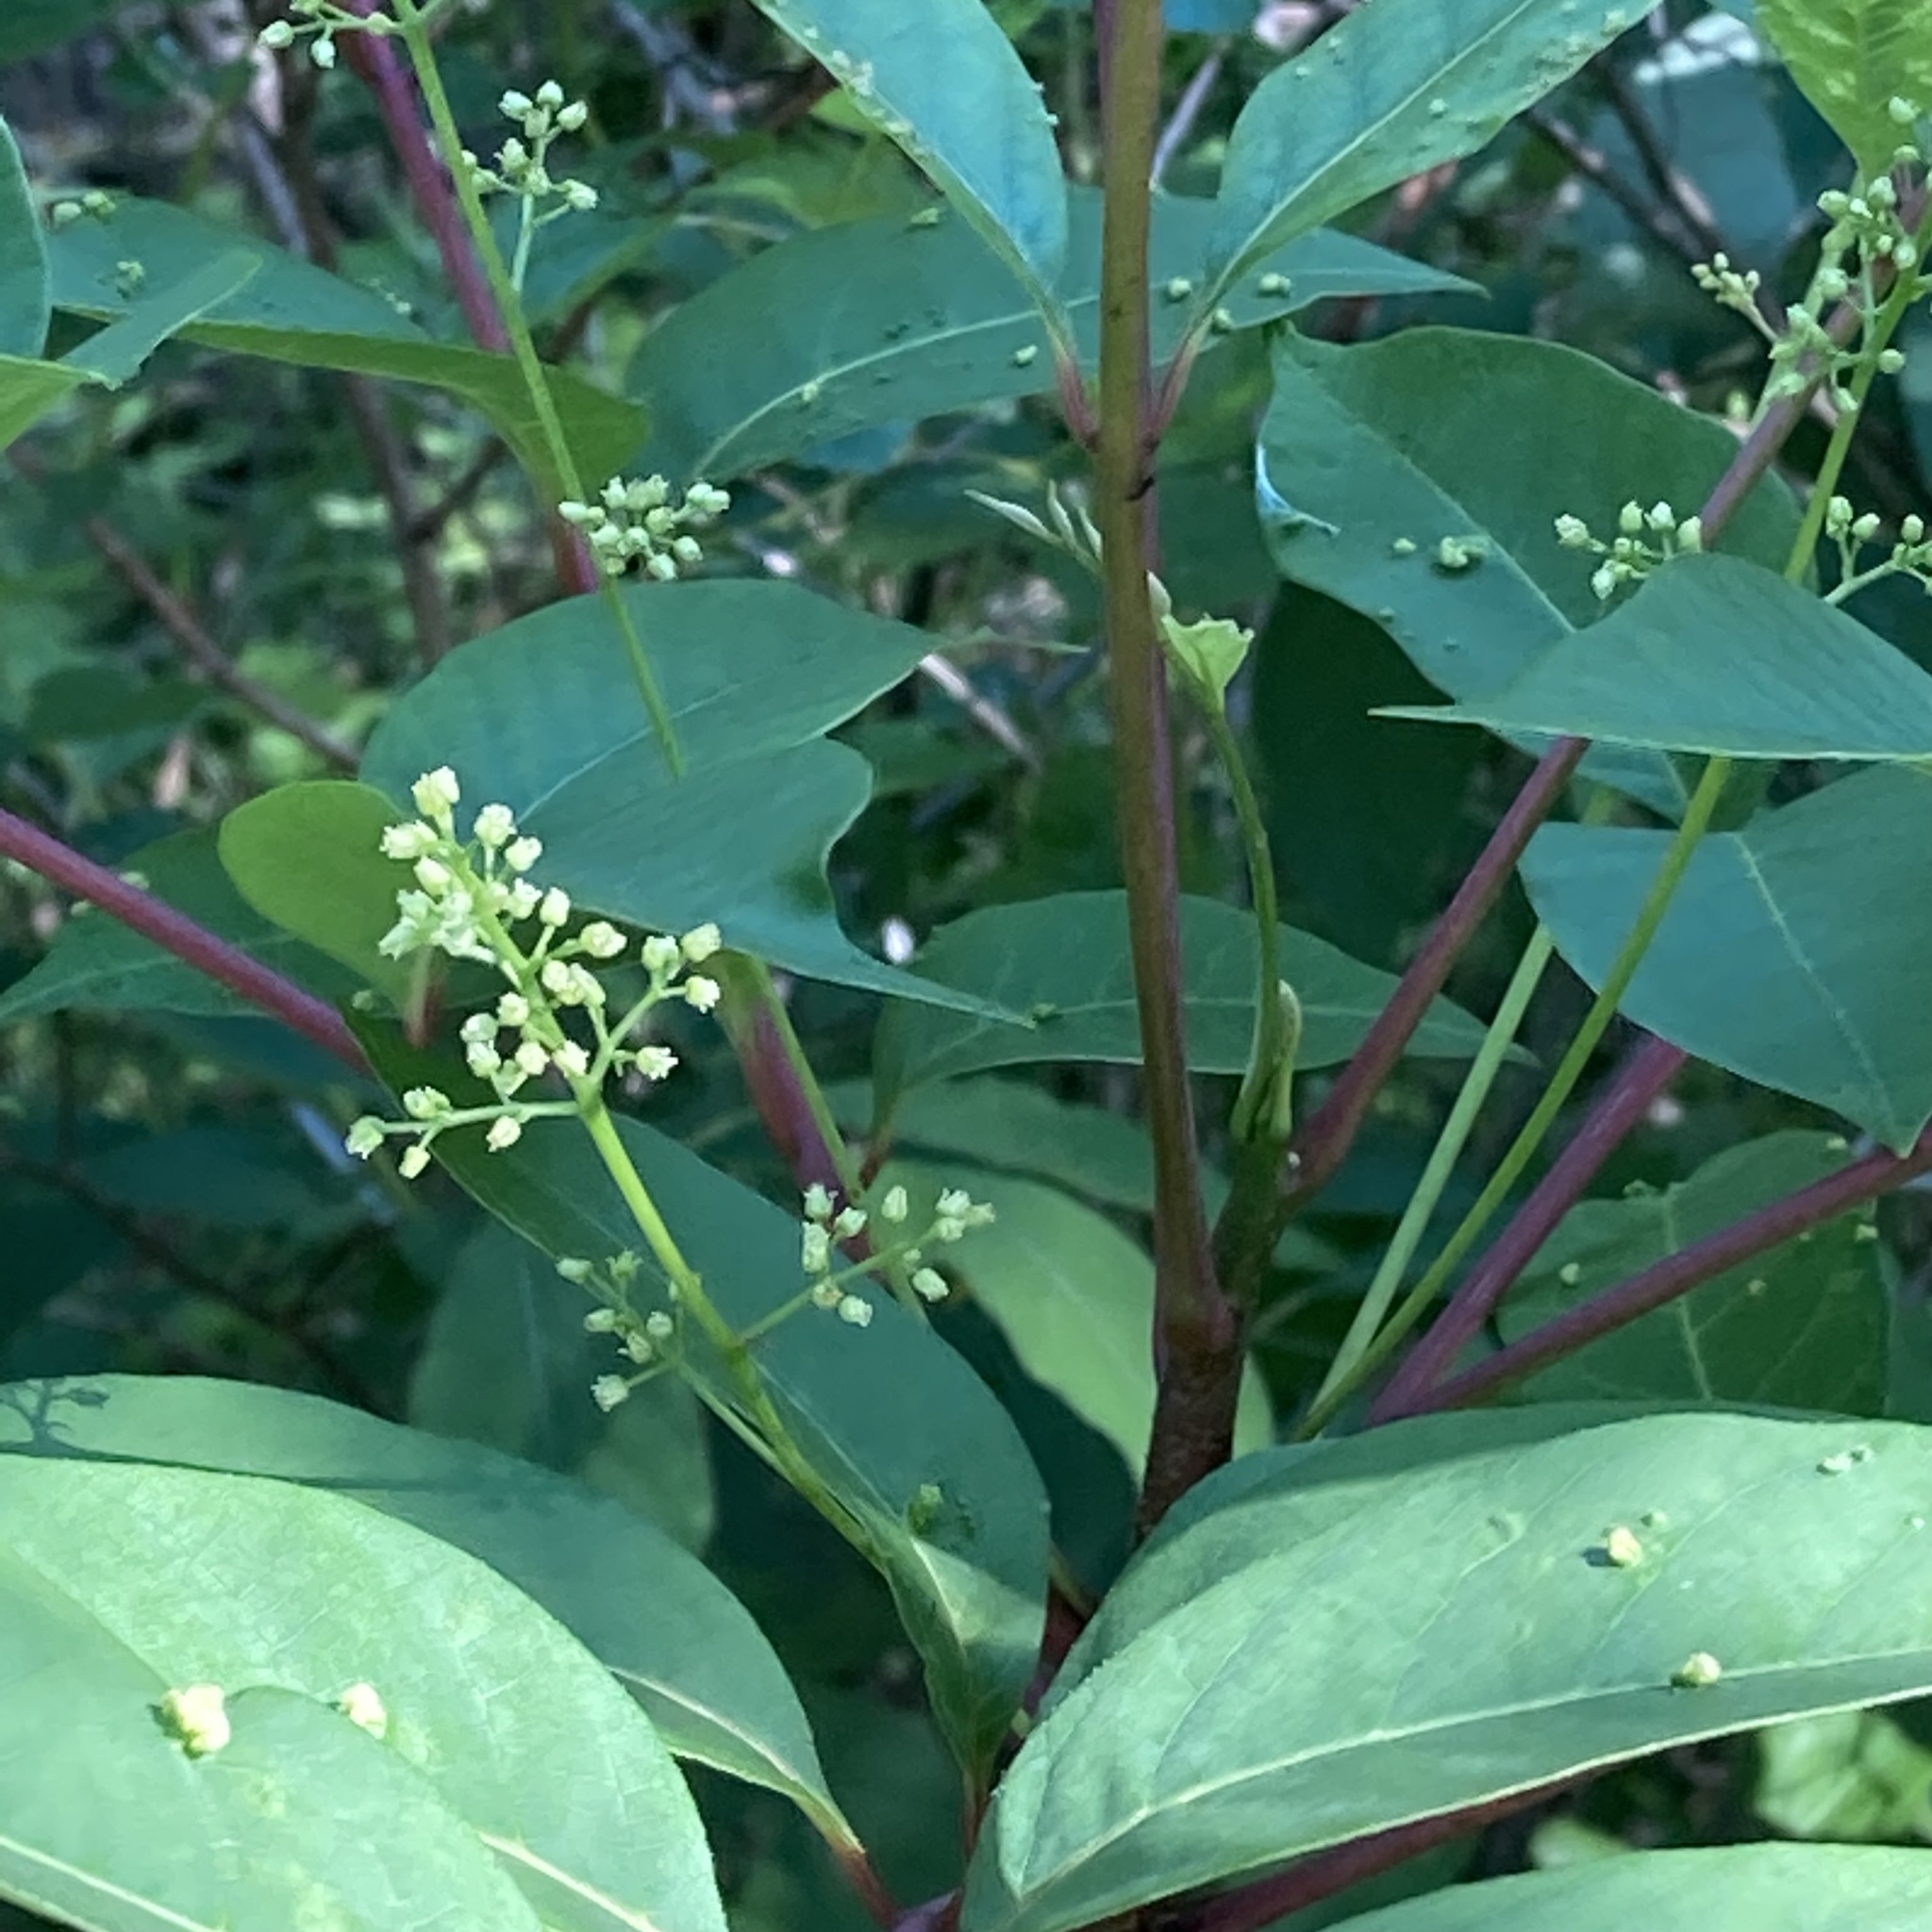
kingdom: Plantae
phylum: Tracheophyta
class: Magnoliopsida
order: Sapindales
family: Anacardiaceae
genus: Toxicodendron
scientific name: Toxicodendron vernix
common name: Poison sumac
